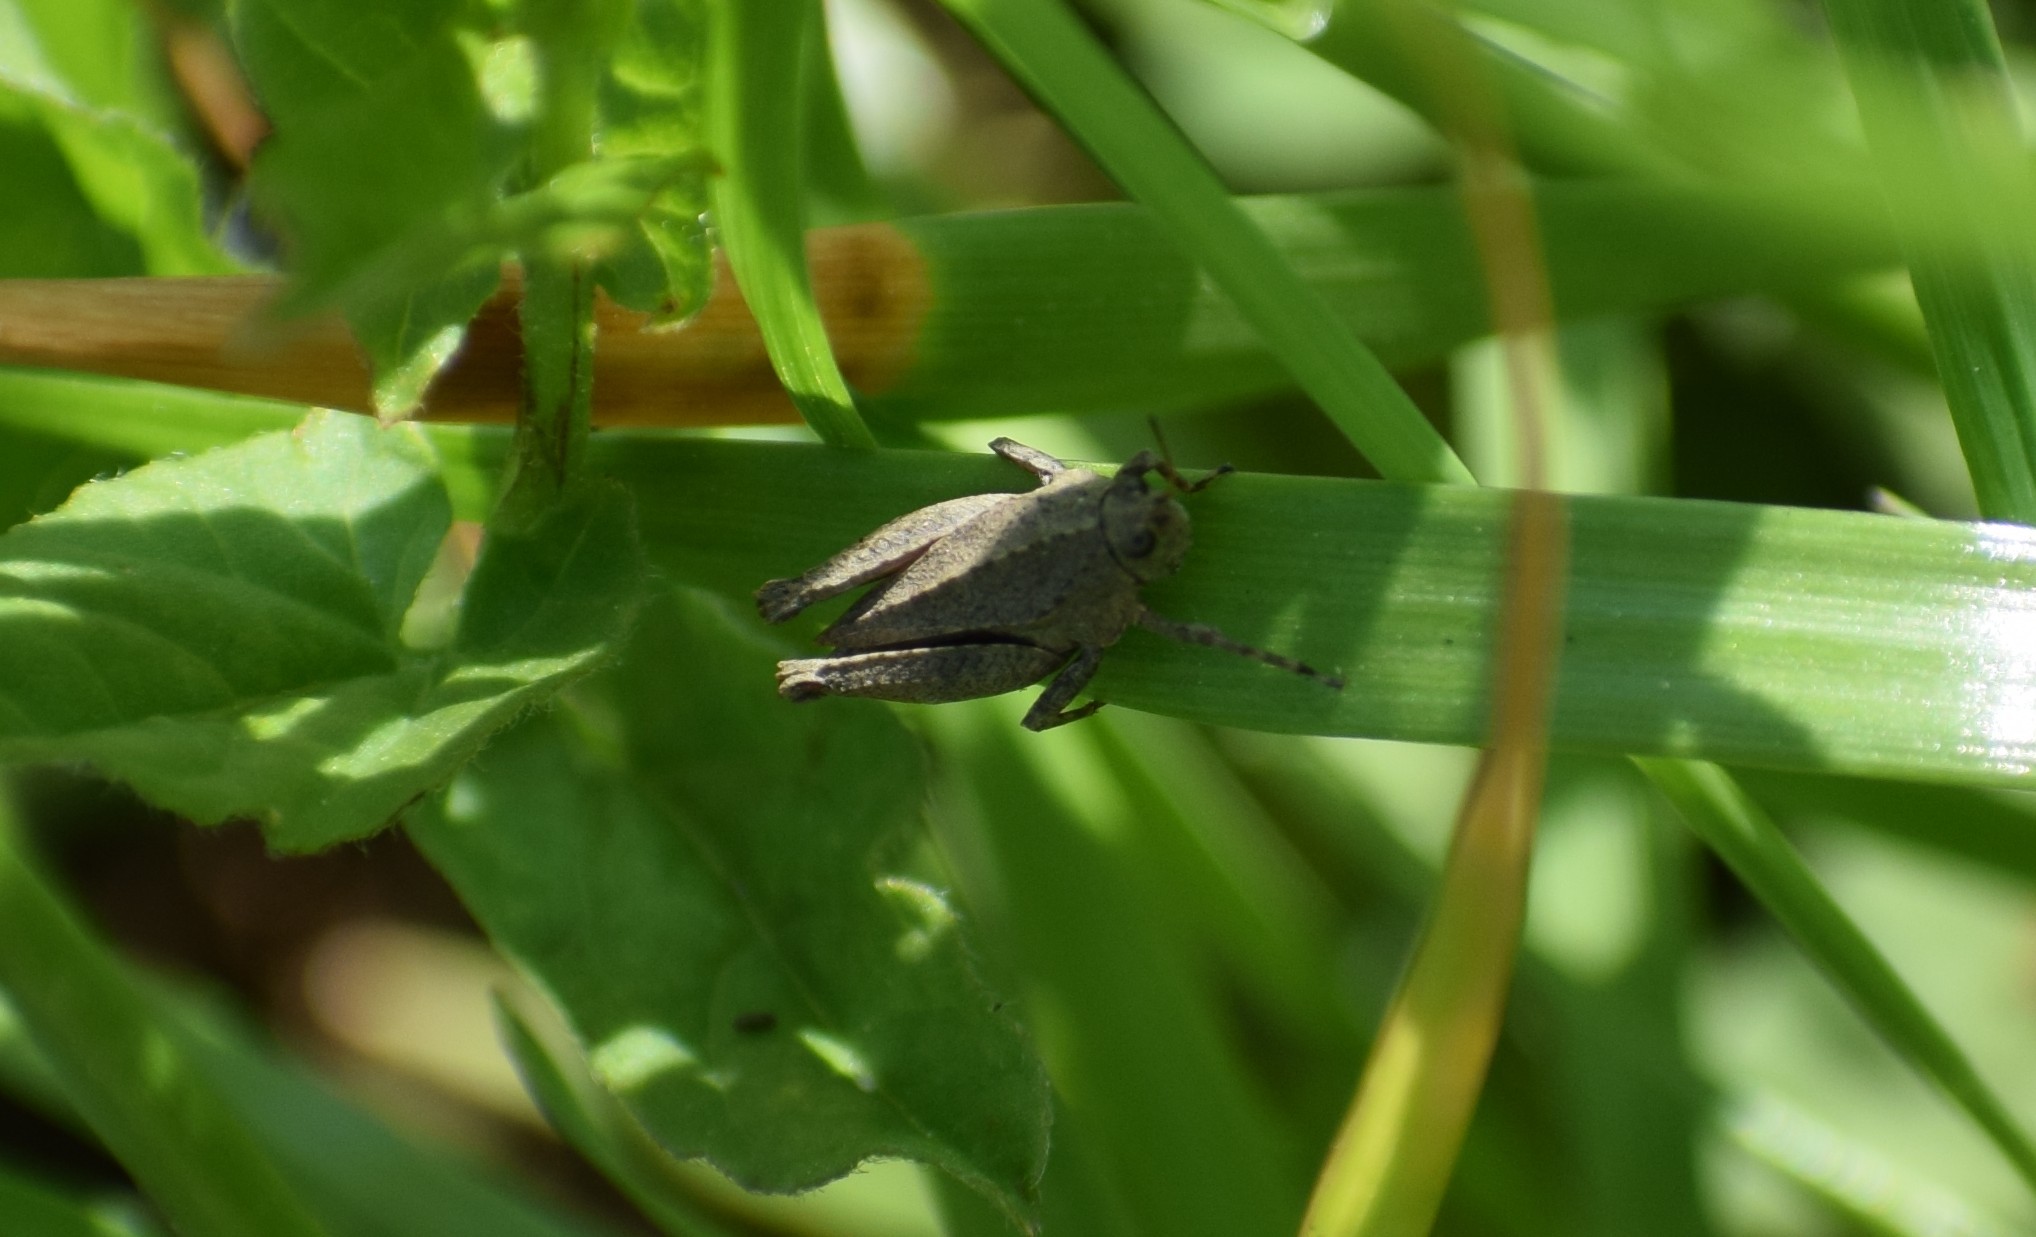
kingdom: Animalia
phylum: Arthropoda
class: Insecta
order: Orthoptera
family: Tetrigidae
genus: Tetrix
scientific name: Tetrix
